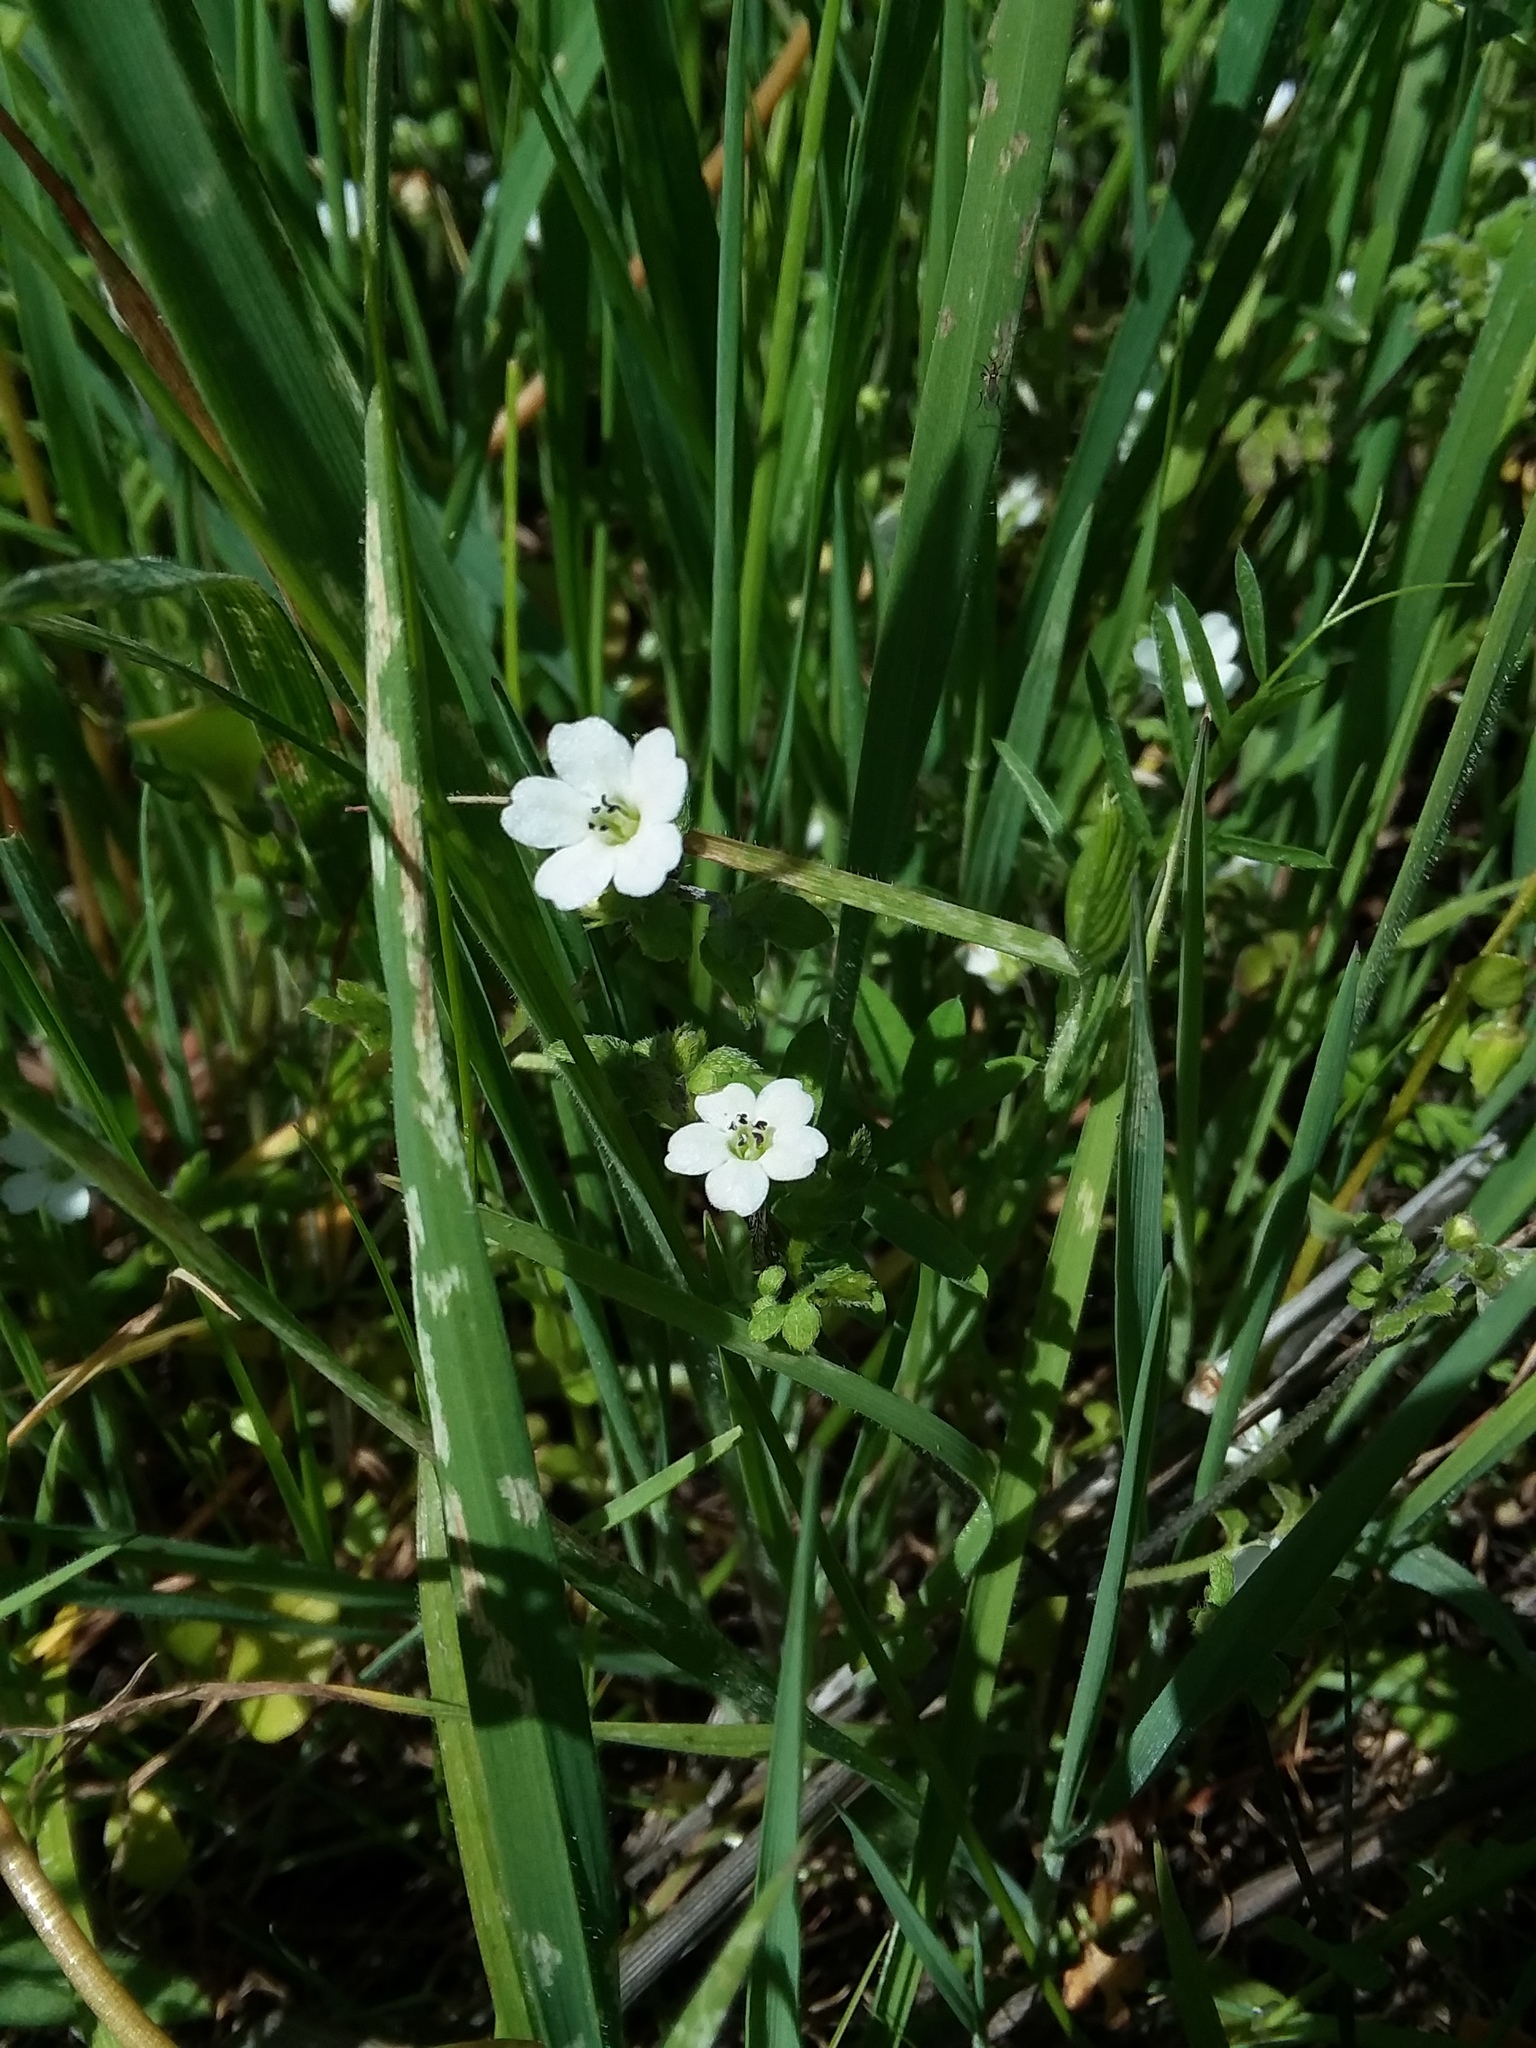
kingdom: Plantae
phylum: Tracheophyta
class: Magnoliopsida
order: Boraginales
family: Hydrophyllaceae
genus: Nemophila
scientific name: Nemophila heterophylla
